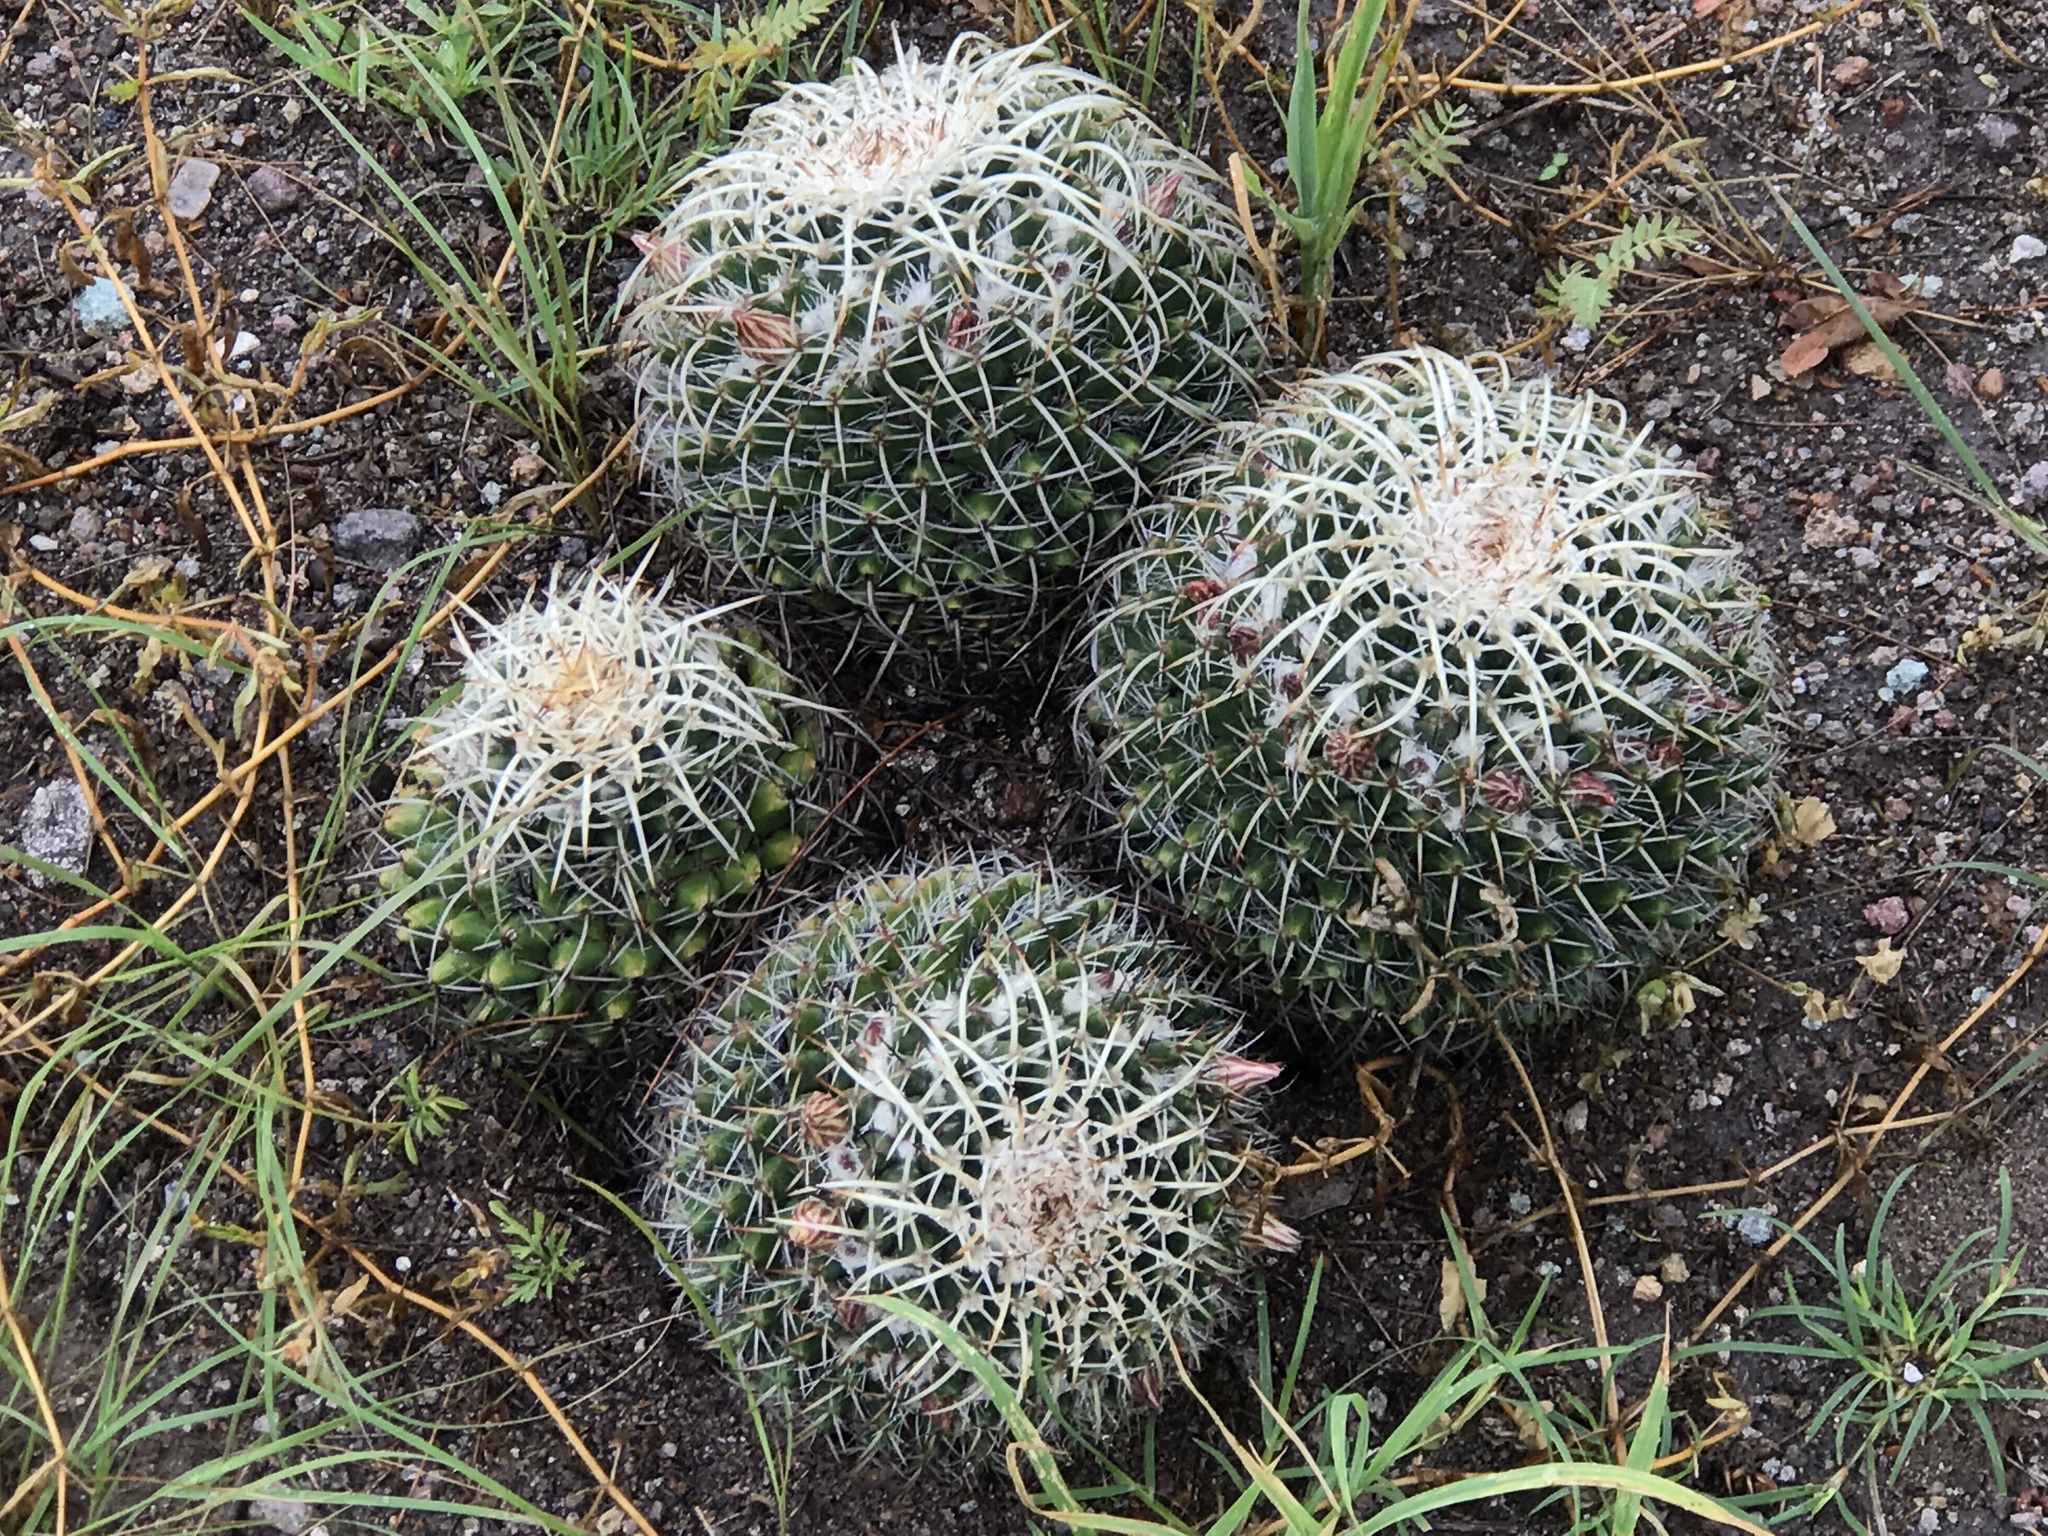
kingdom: Plantae
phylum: Tracheophyta
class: Magnoliopsida
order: Caryophyllales
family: Cactaceae
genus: Mammillaria
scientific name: Mammillaria karwinskiana
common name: Royal cross
